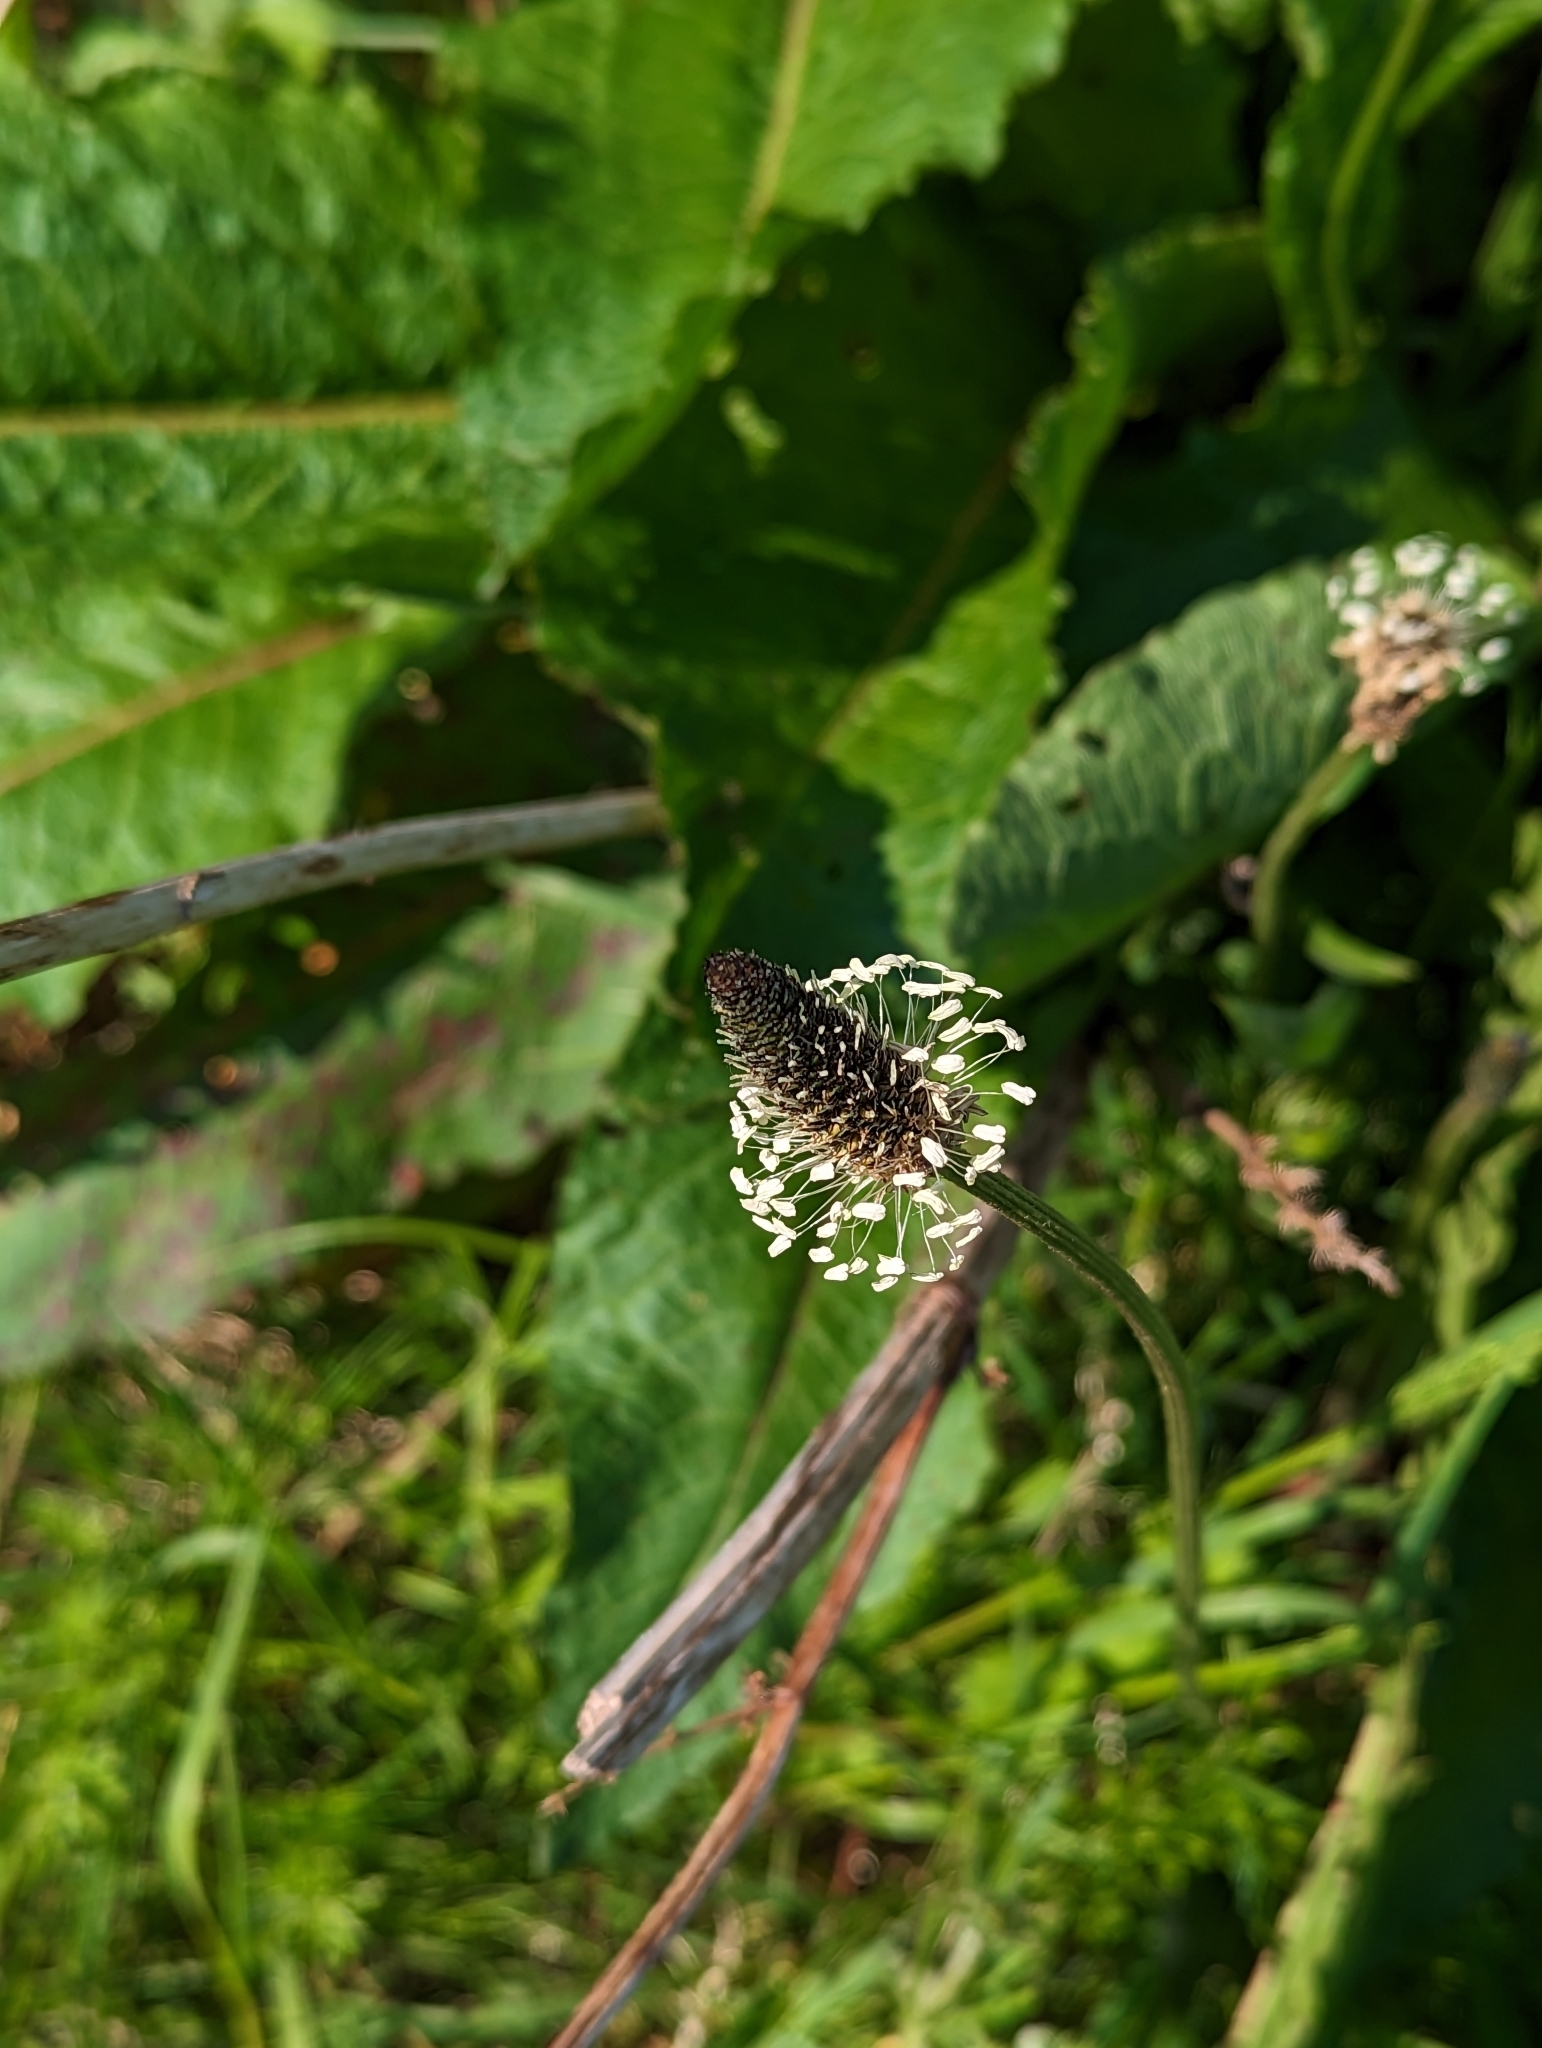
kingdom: Plantae
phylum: Tracheophyta
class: Magnoliopsida
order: Lamiales
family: Plantaginaceae
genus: Plantago
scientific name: Plantago lanceolata
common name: Ribwort plantain
